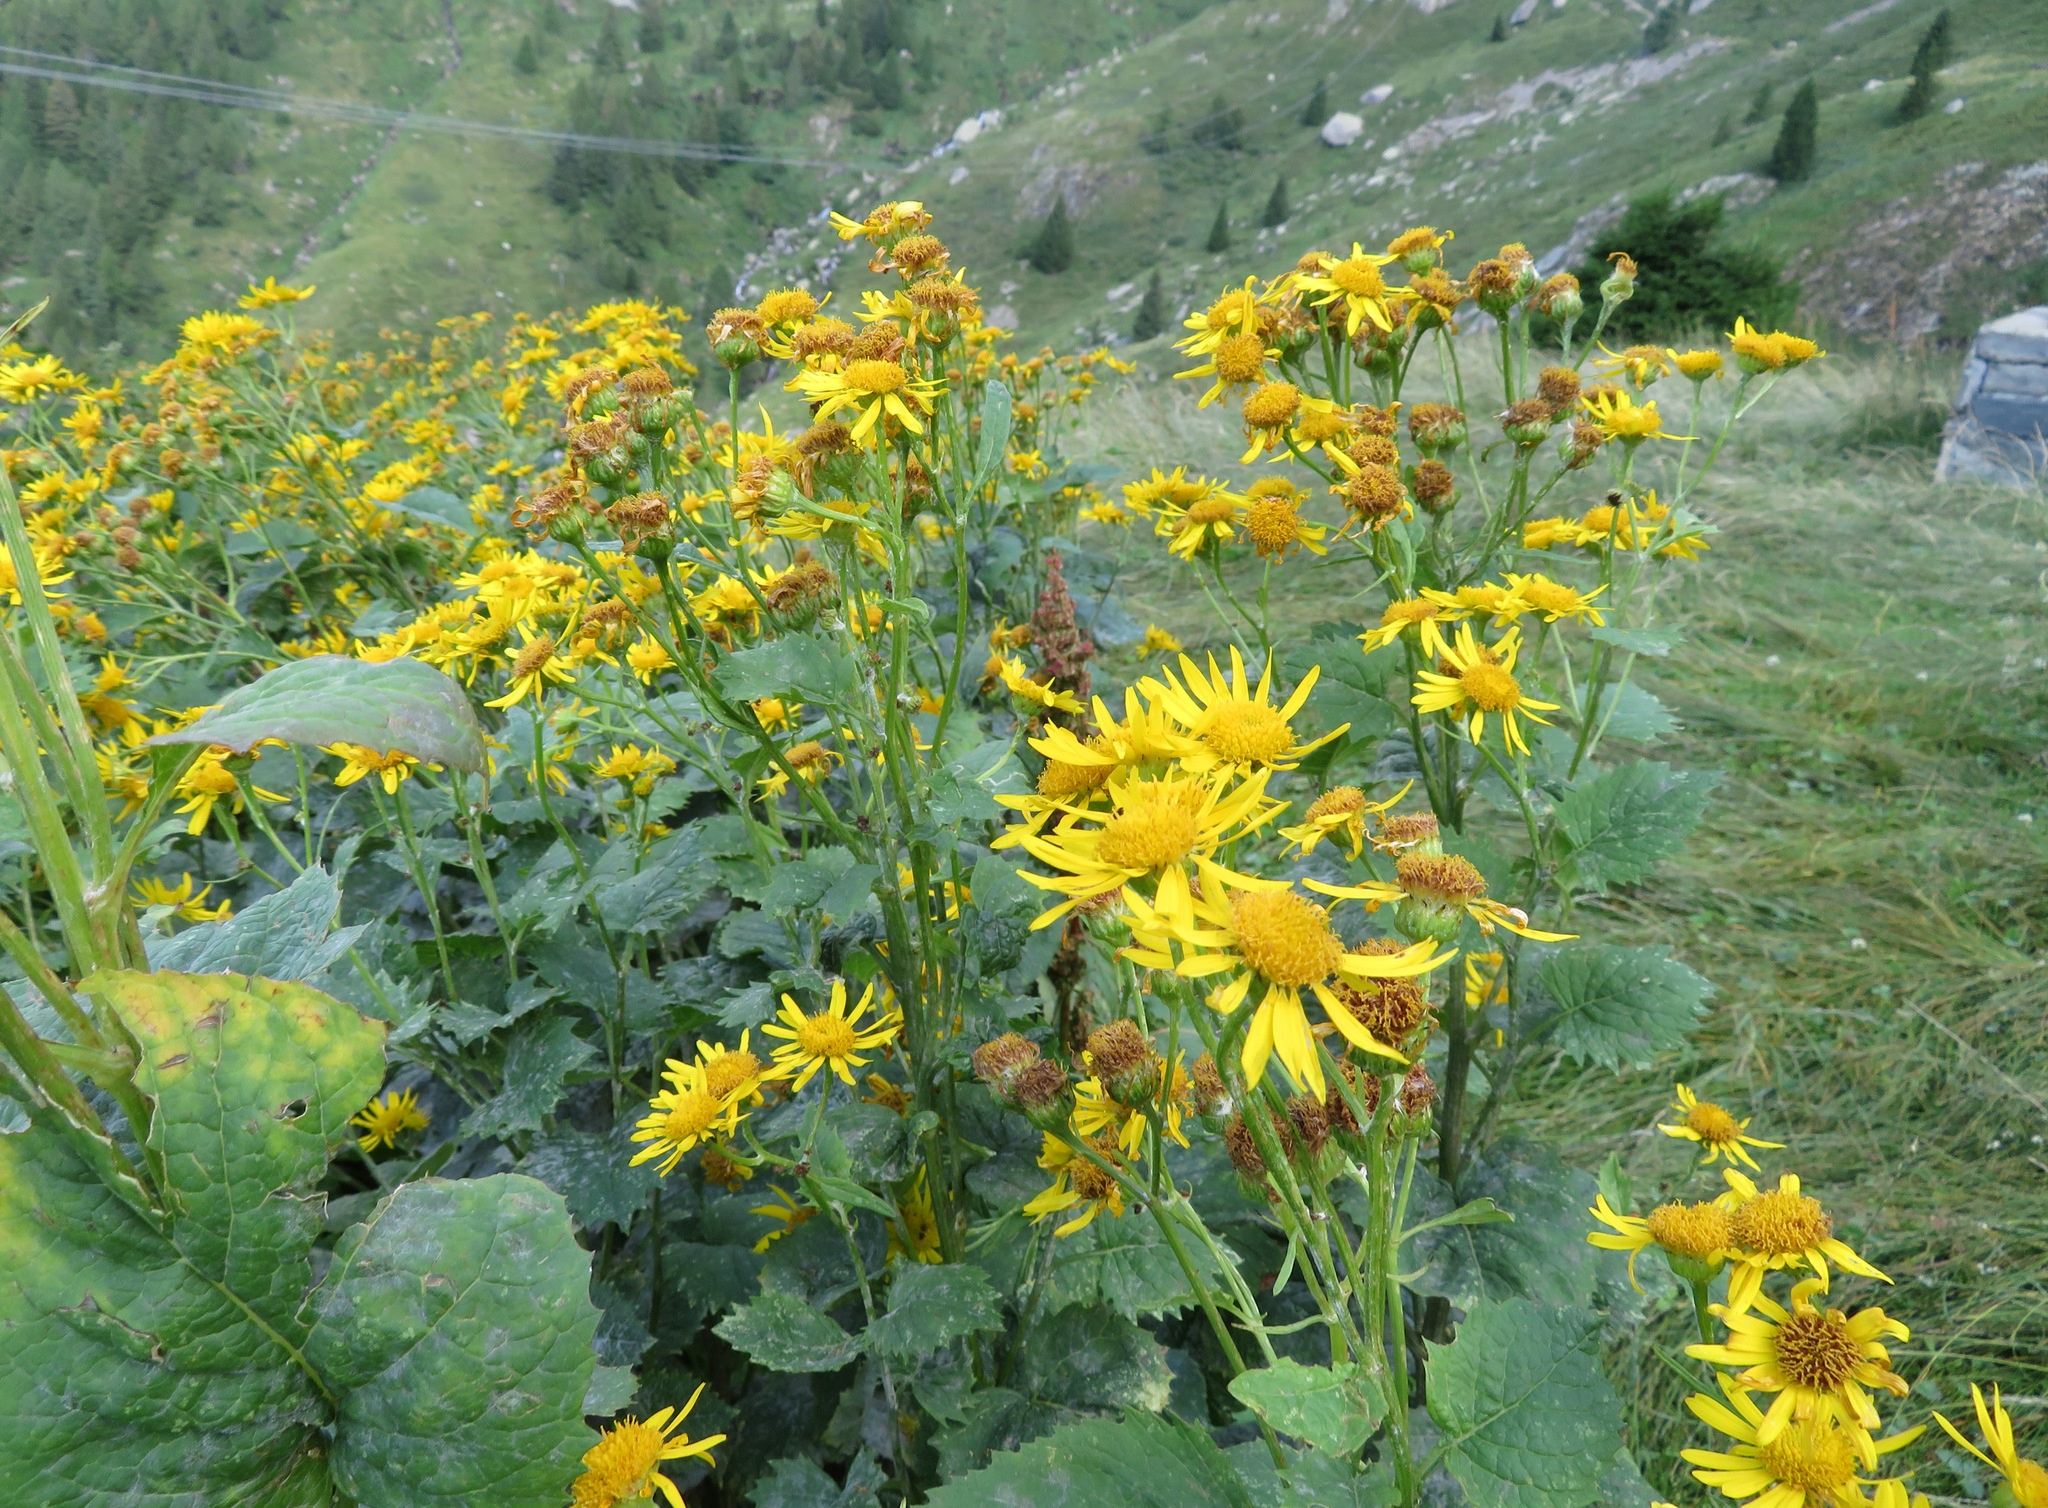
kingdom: Plantae
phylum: Tracheophyta
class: Magnoliopsida
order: Asterales
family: Asteraceae
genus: Jacobaea
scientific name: Jacobaea alpina
